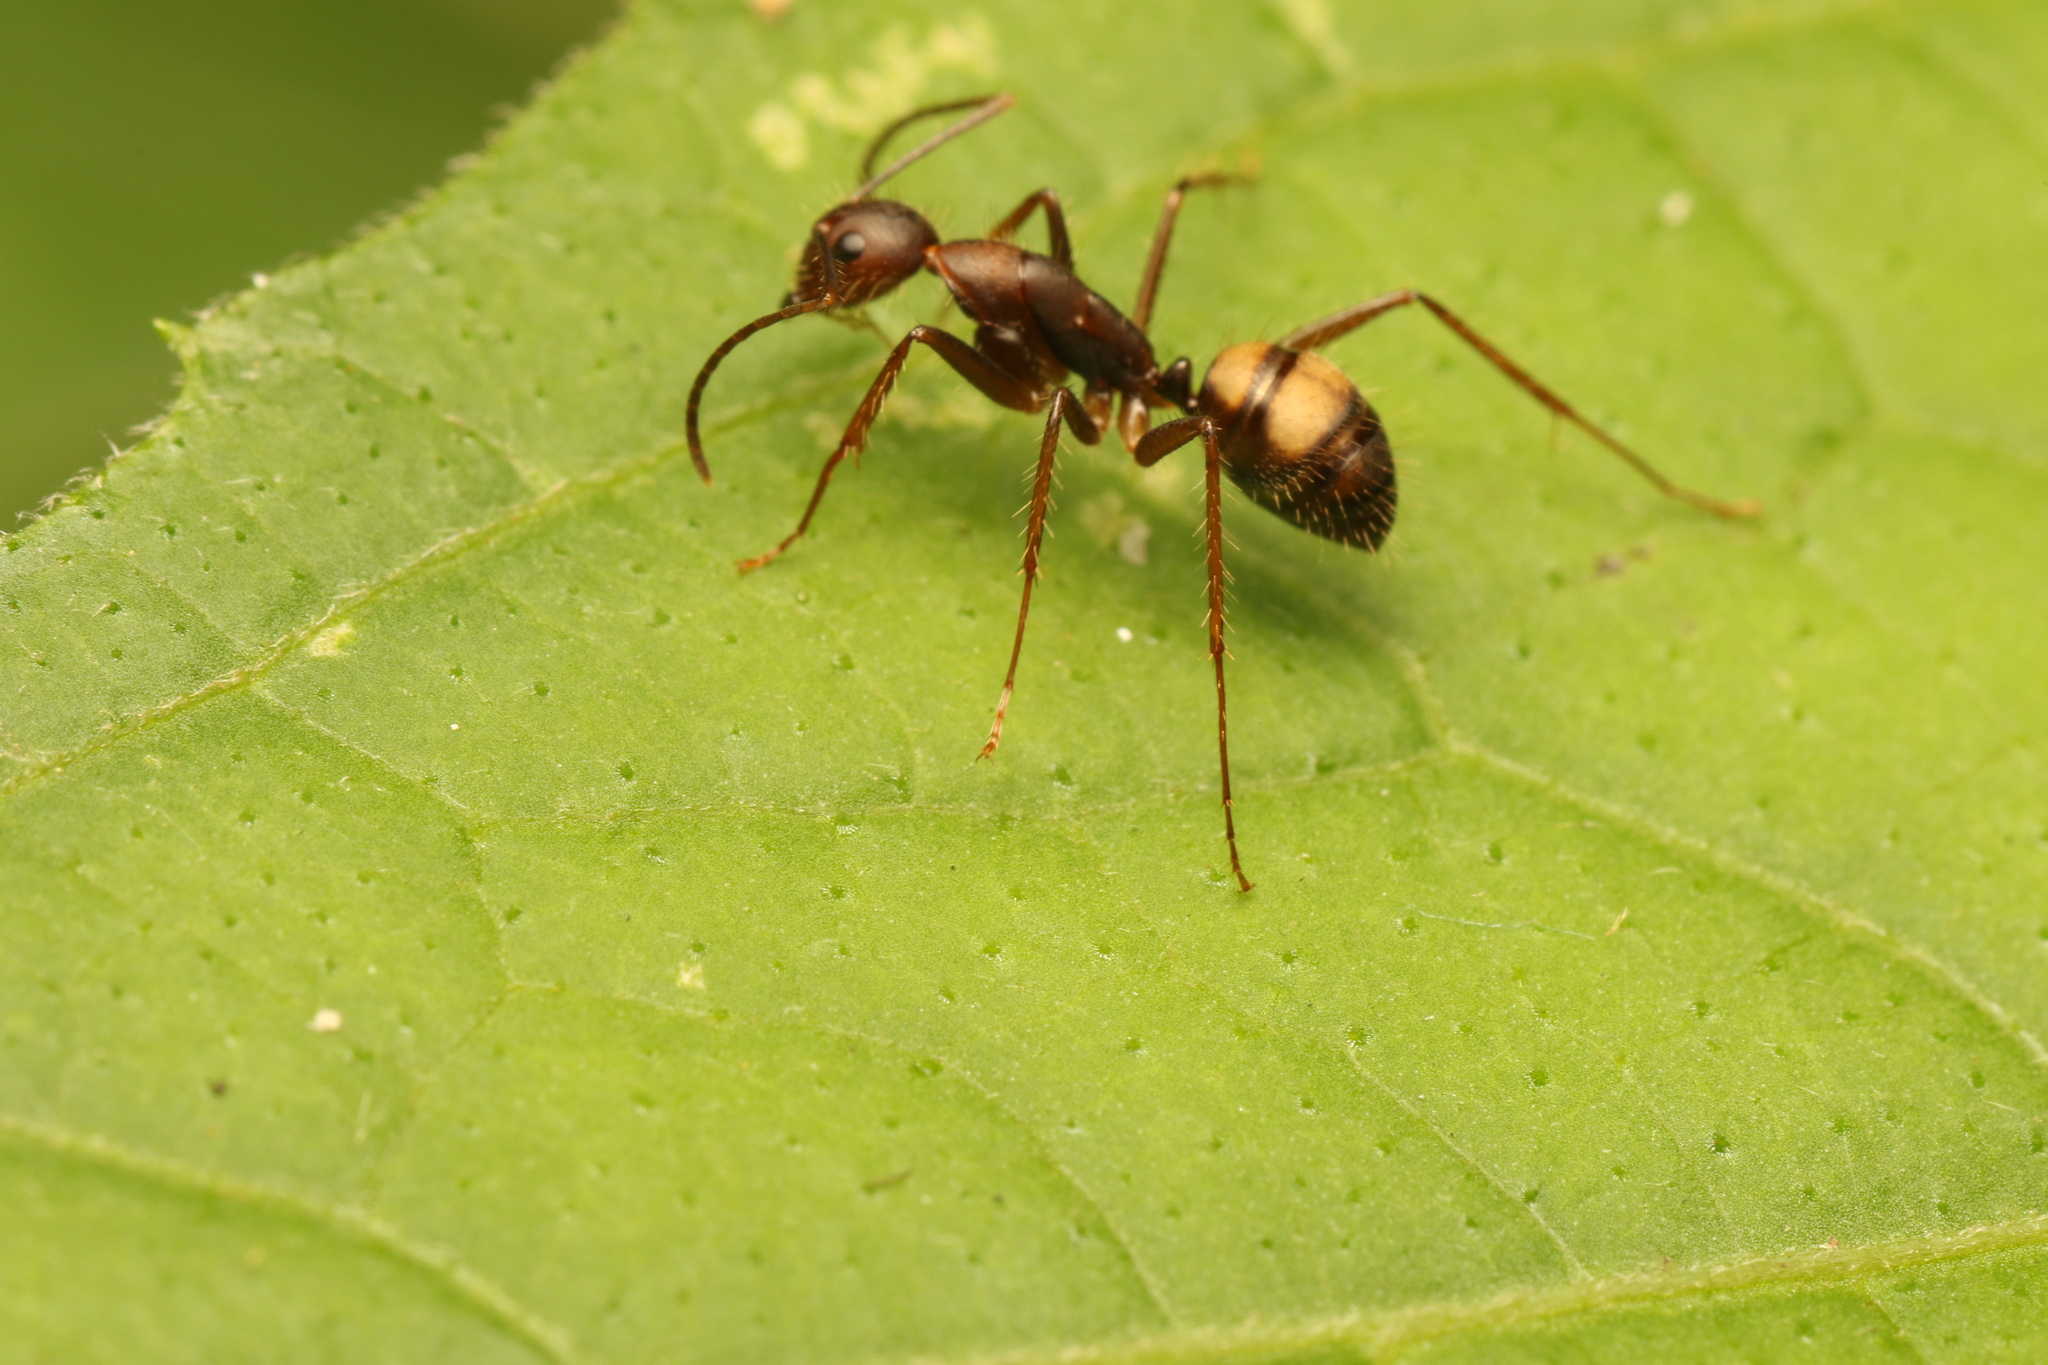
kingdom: Animalia
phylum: Arthropoda
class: Insecta
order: Hymenoptera
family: Formicidae
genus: Camponotus
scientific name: Camponotus cingulatus
